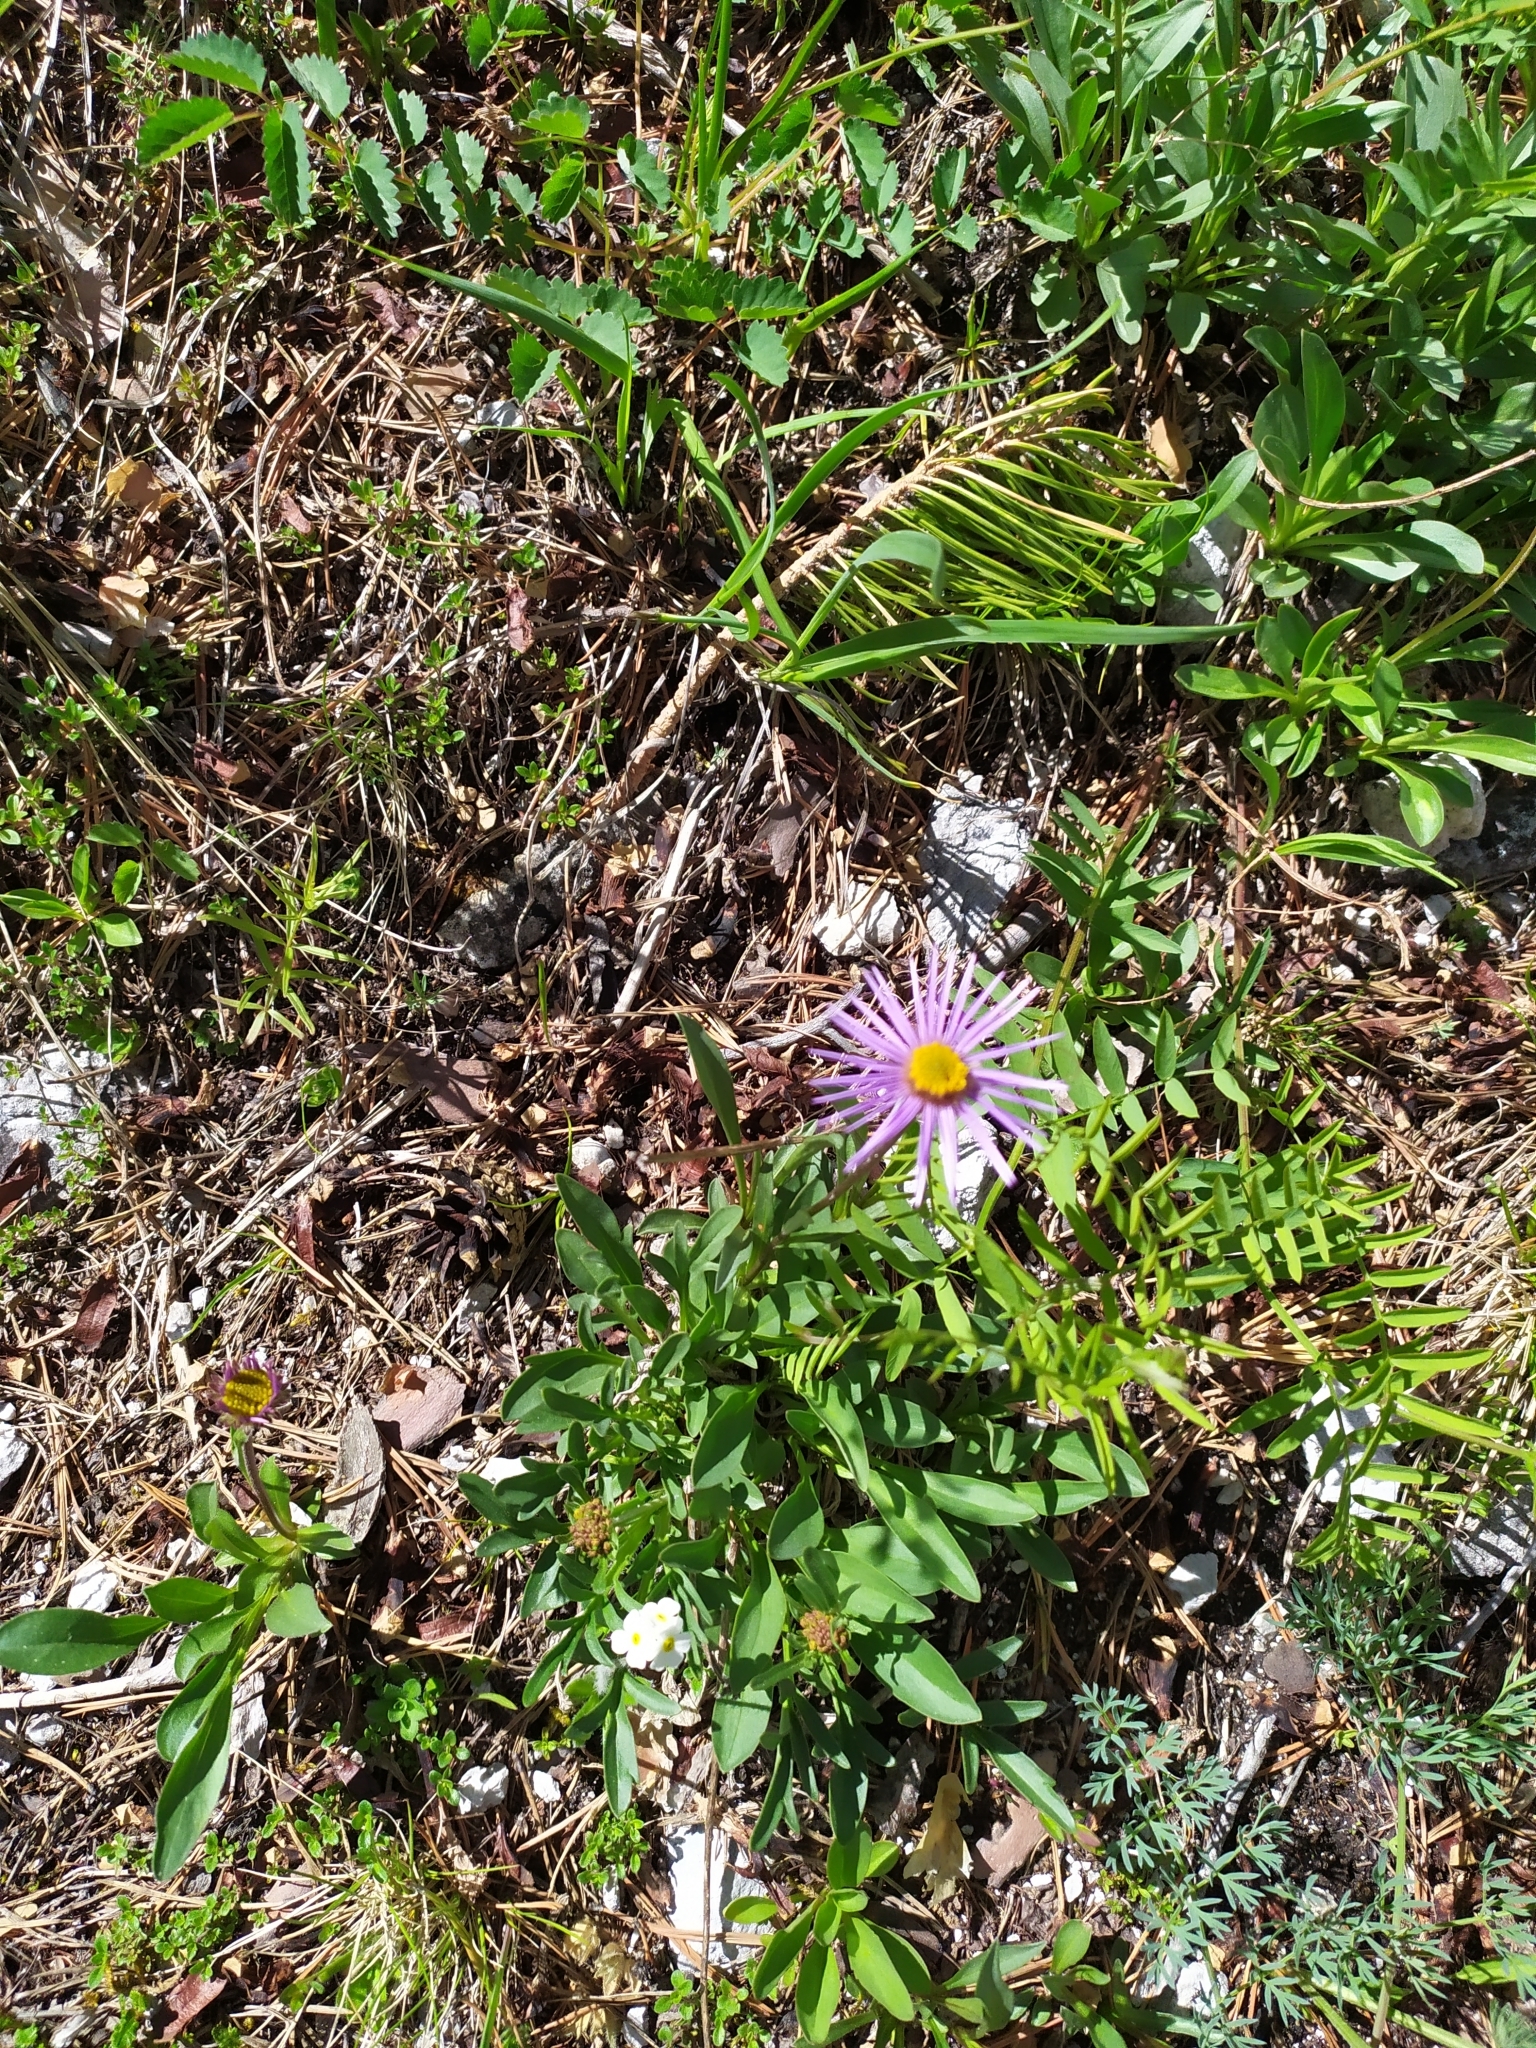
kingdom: Plantae
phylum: Tracheophyta
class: Magnoliopsida
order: Asterales
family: Asteraceae
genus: Aster
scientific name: Aster alpinus
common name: Alpine aster
